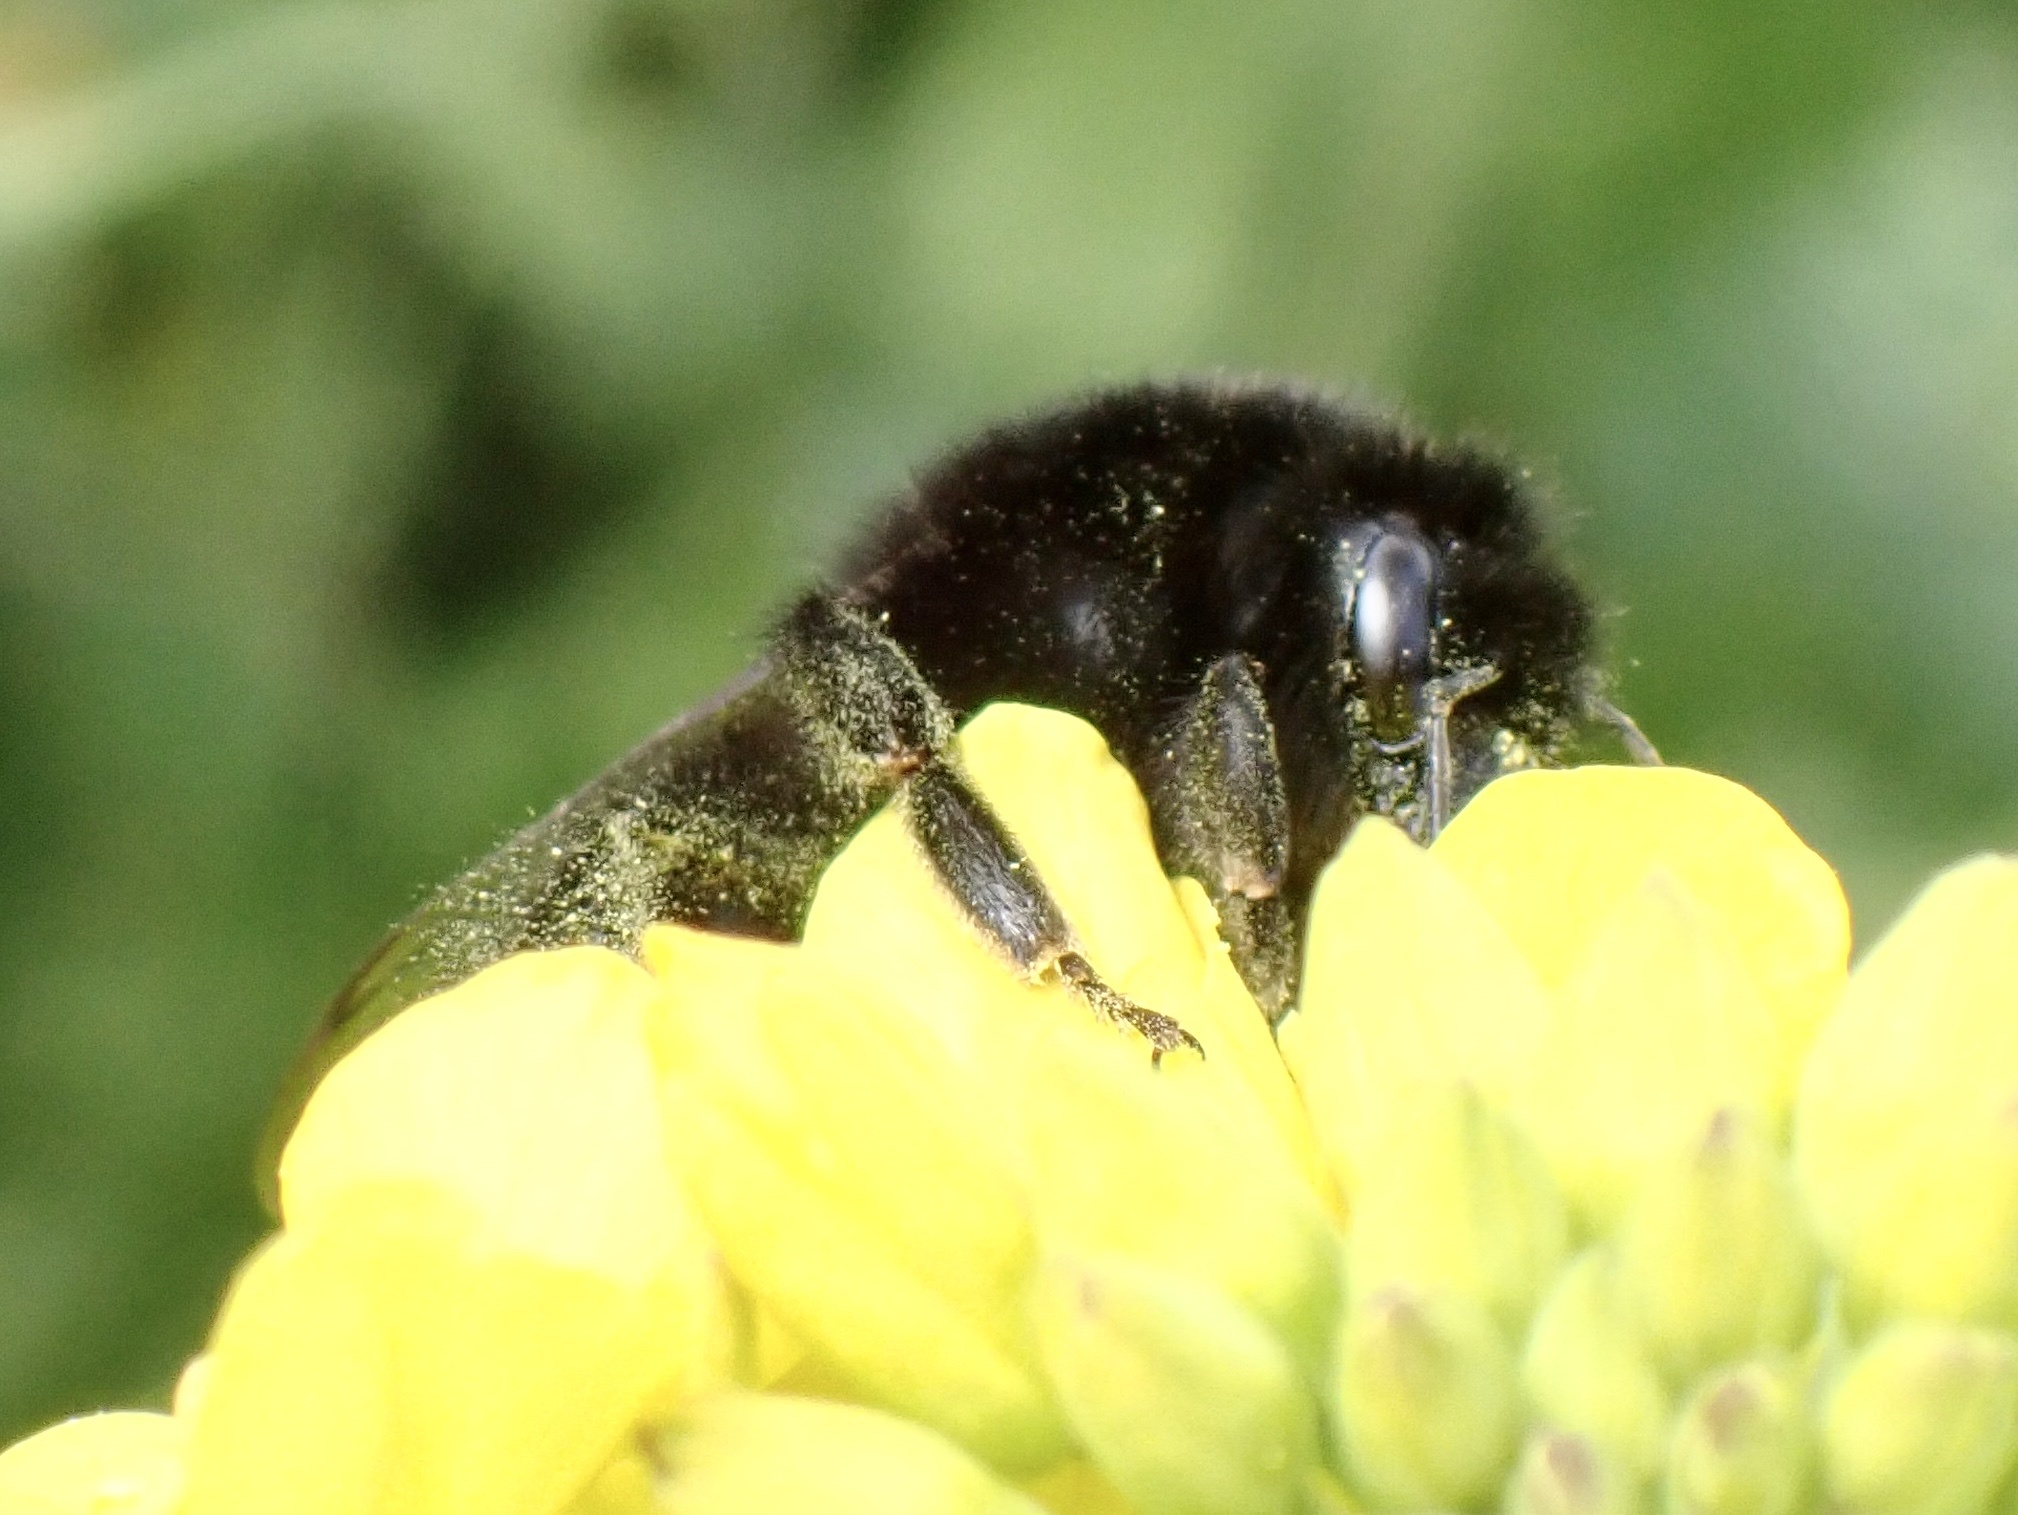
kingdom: Animalia
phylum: Arthropoda
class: Insecta
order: Hymenoptera
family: Apidae
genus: Bombus
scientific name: Bombus lapidarius
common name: Large red-tailed humble-bee
